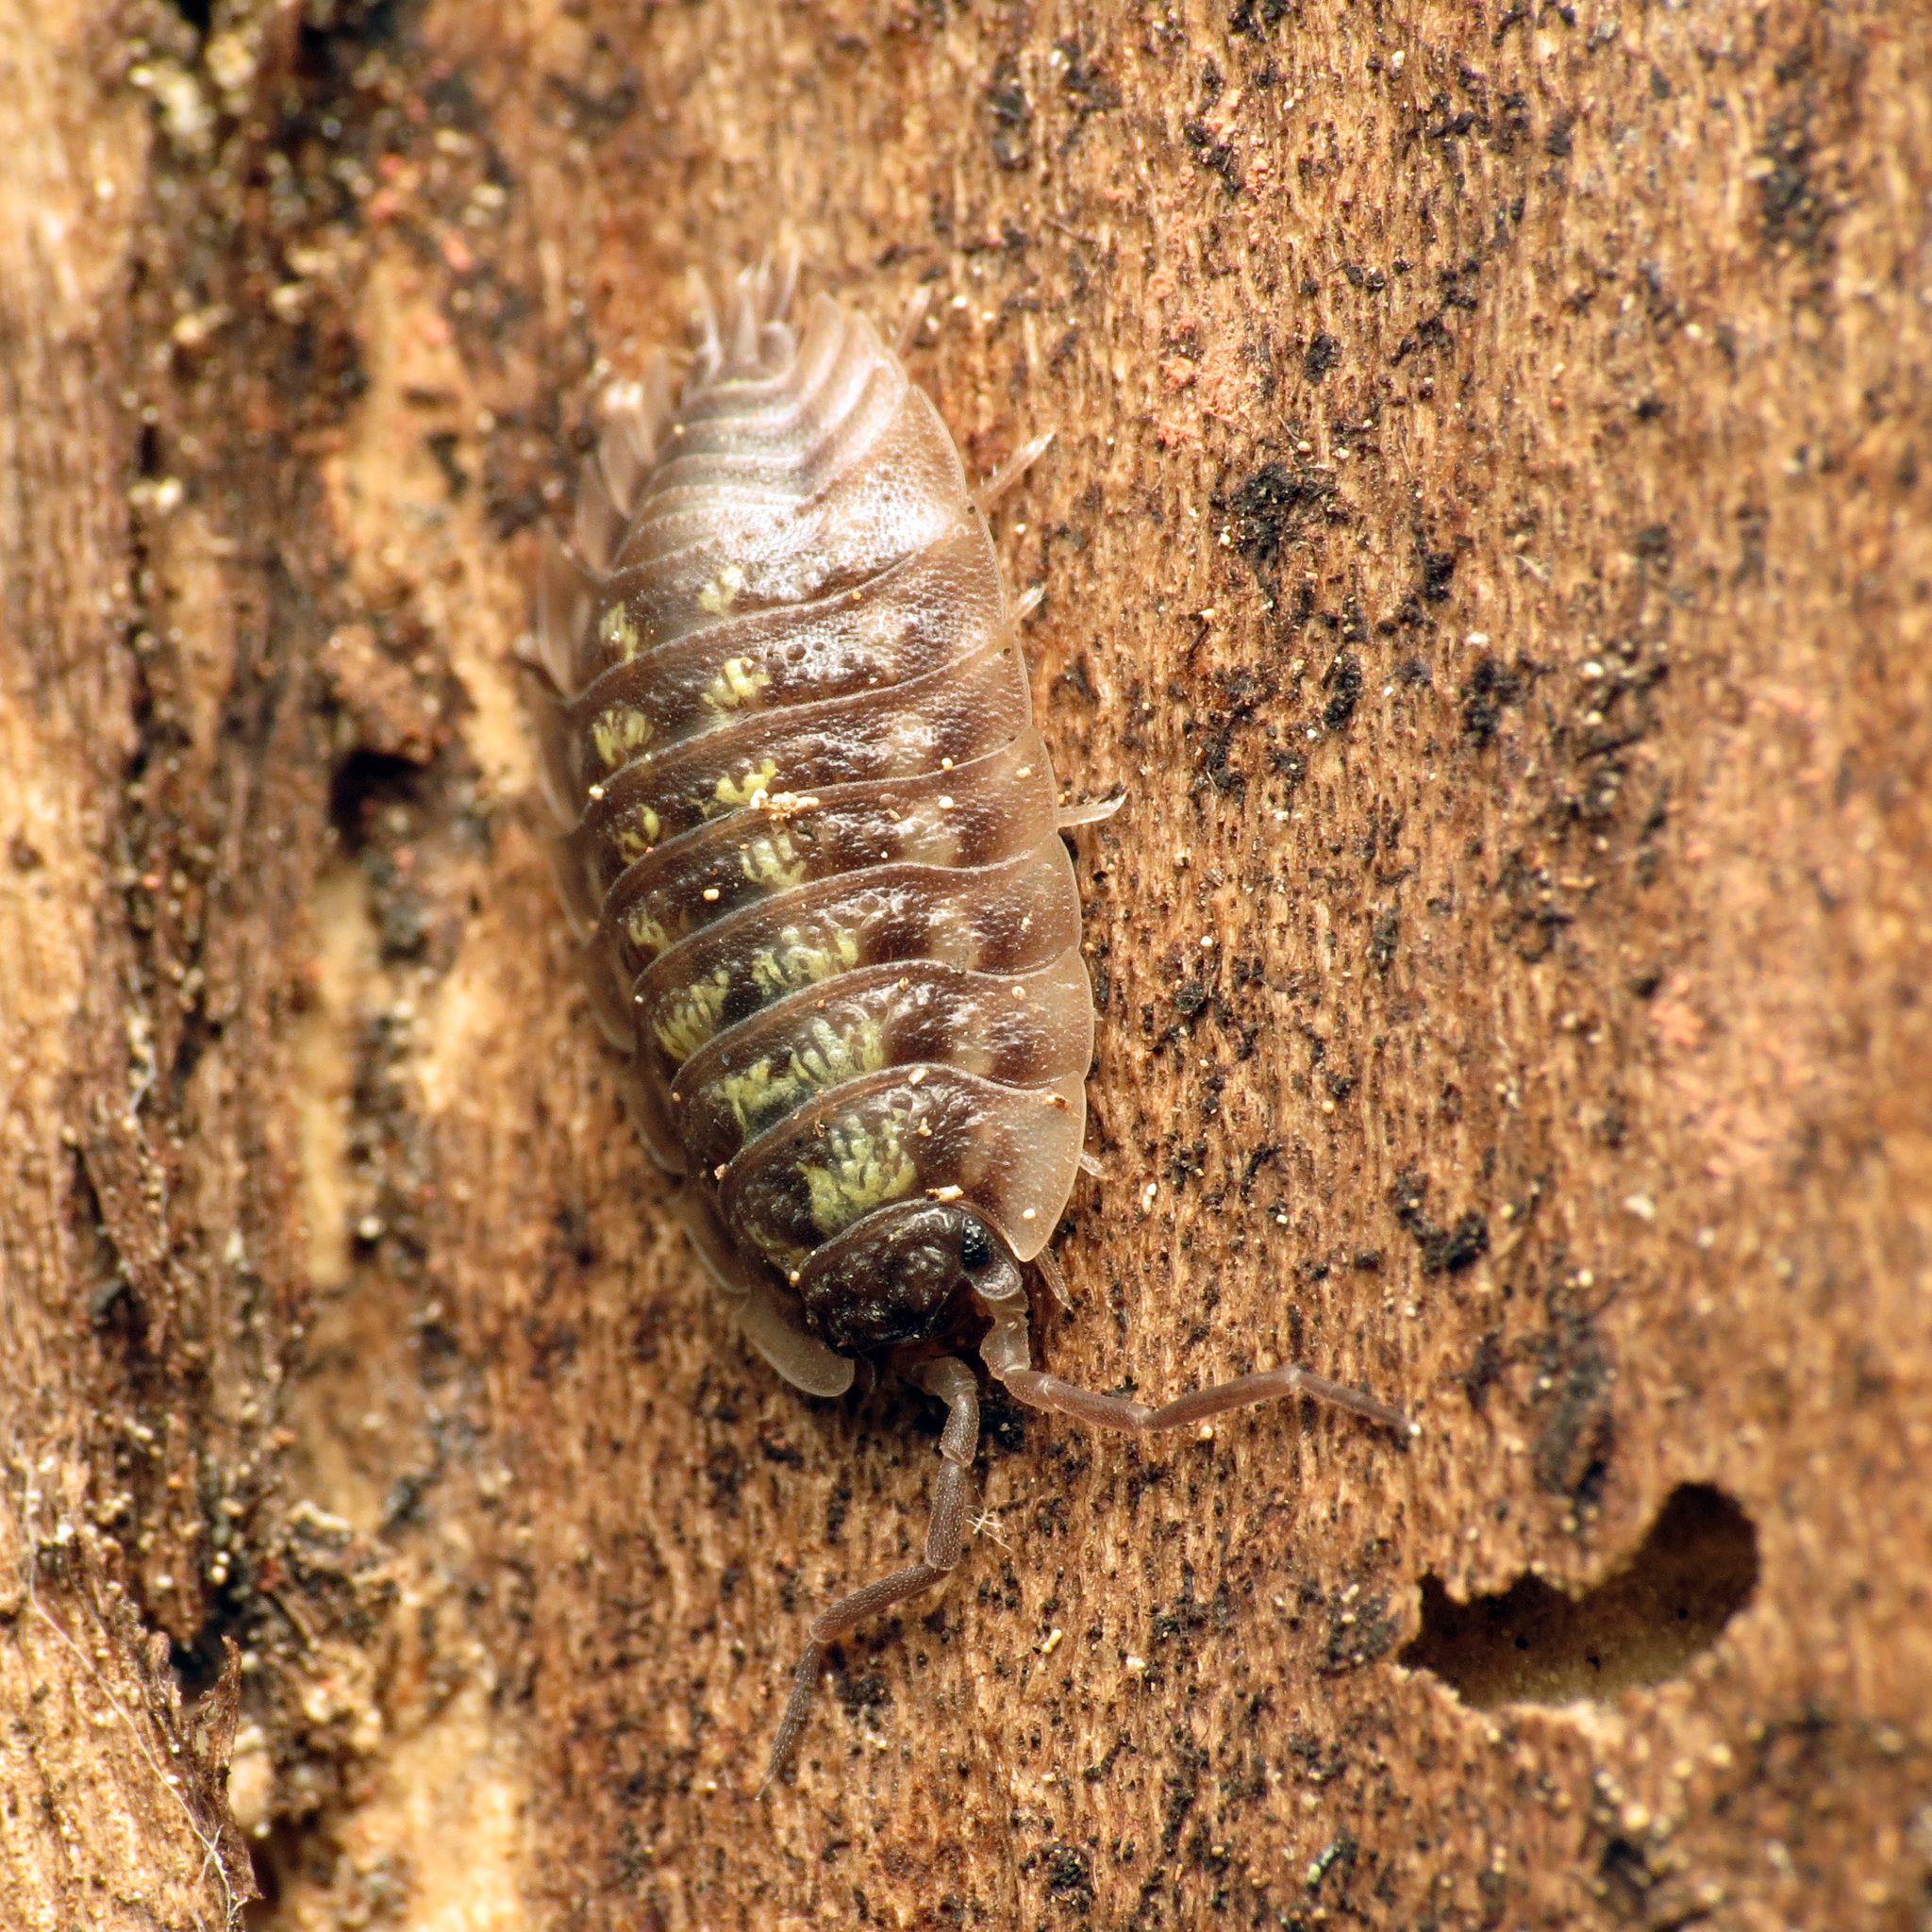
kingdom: Animalia
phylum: Arthropoda
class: Malacostraca
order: Isopoda
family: Oniscidae
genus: Oniscus
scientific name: Oniscus asellus
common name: Common shiny woodlouse
